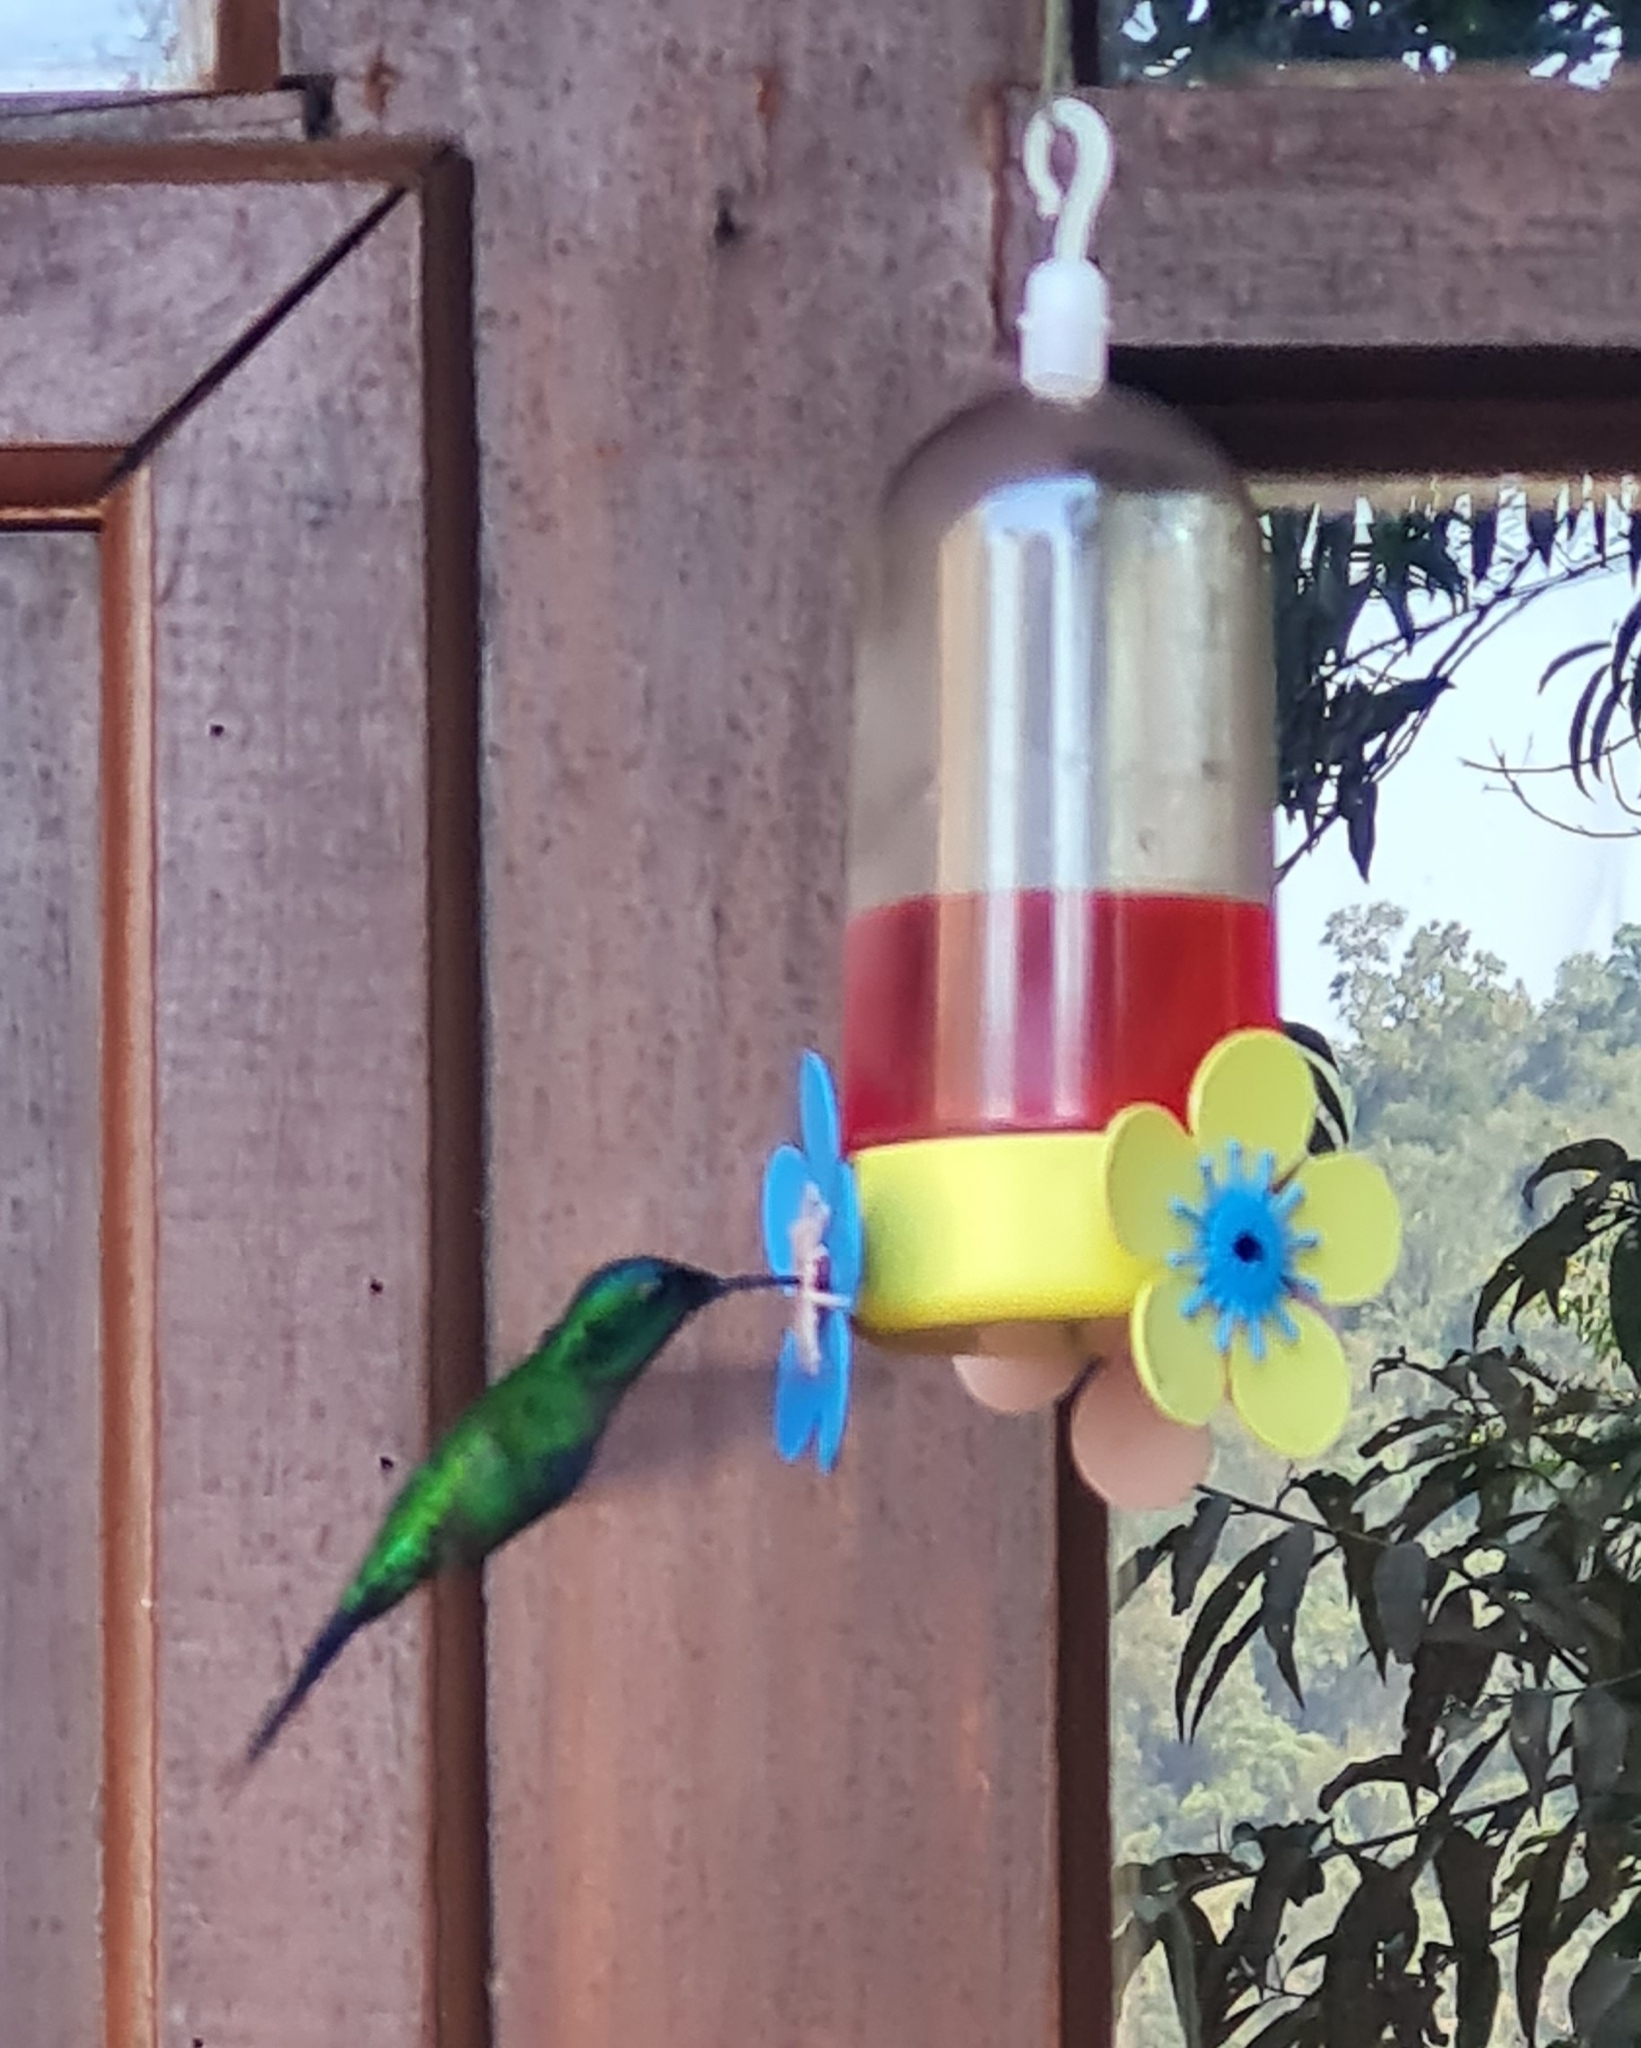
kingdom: Animalia
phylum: Chordata
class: Aves
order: Apodiformes
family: Trochilidae
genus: Thalurania
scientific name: Thalurania glaucopis
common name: Violet-capped woodnymph
